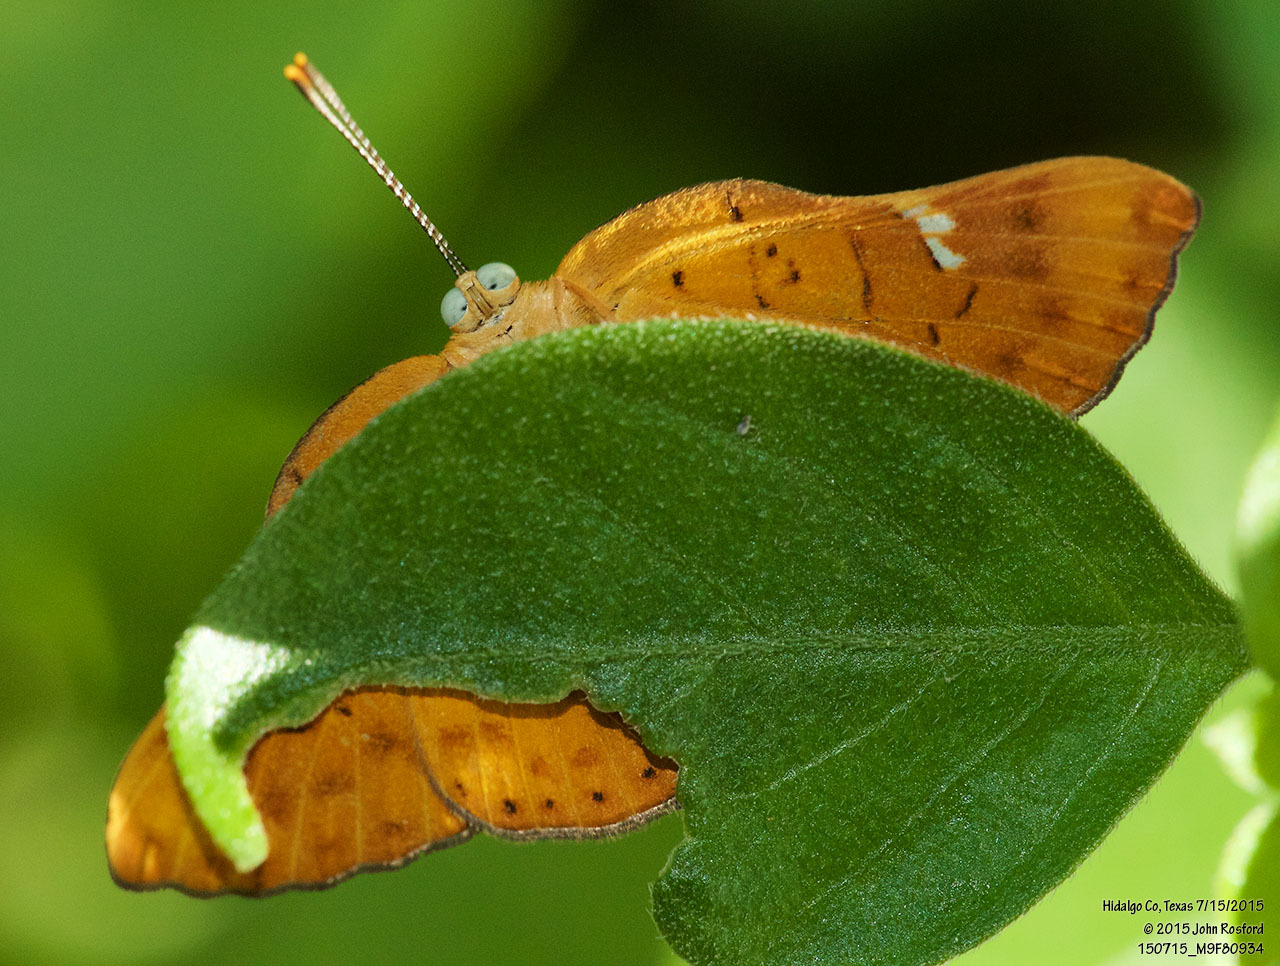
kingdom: Animalia
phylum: Arthropoda
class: Insecta
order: Lepidoptera
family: Riodinidae
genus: Curvie
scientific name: Curvie emesia
